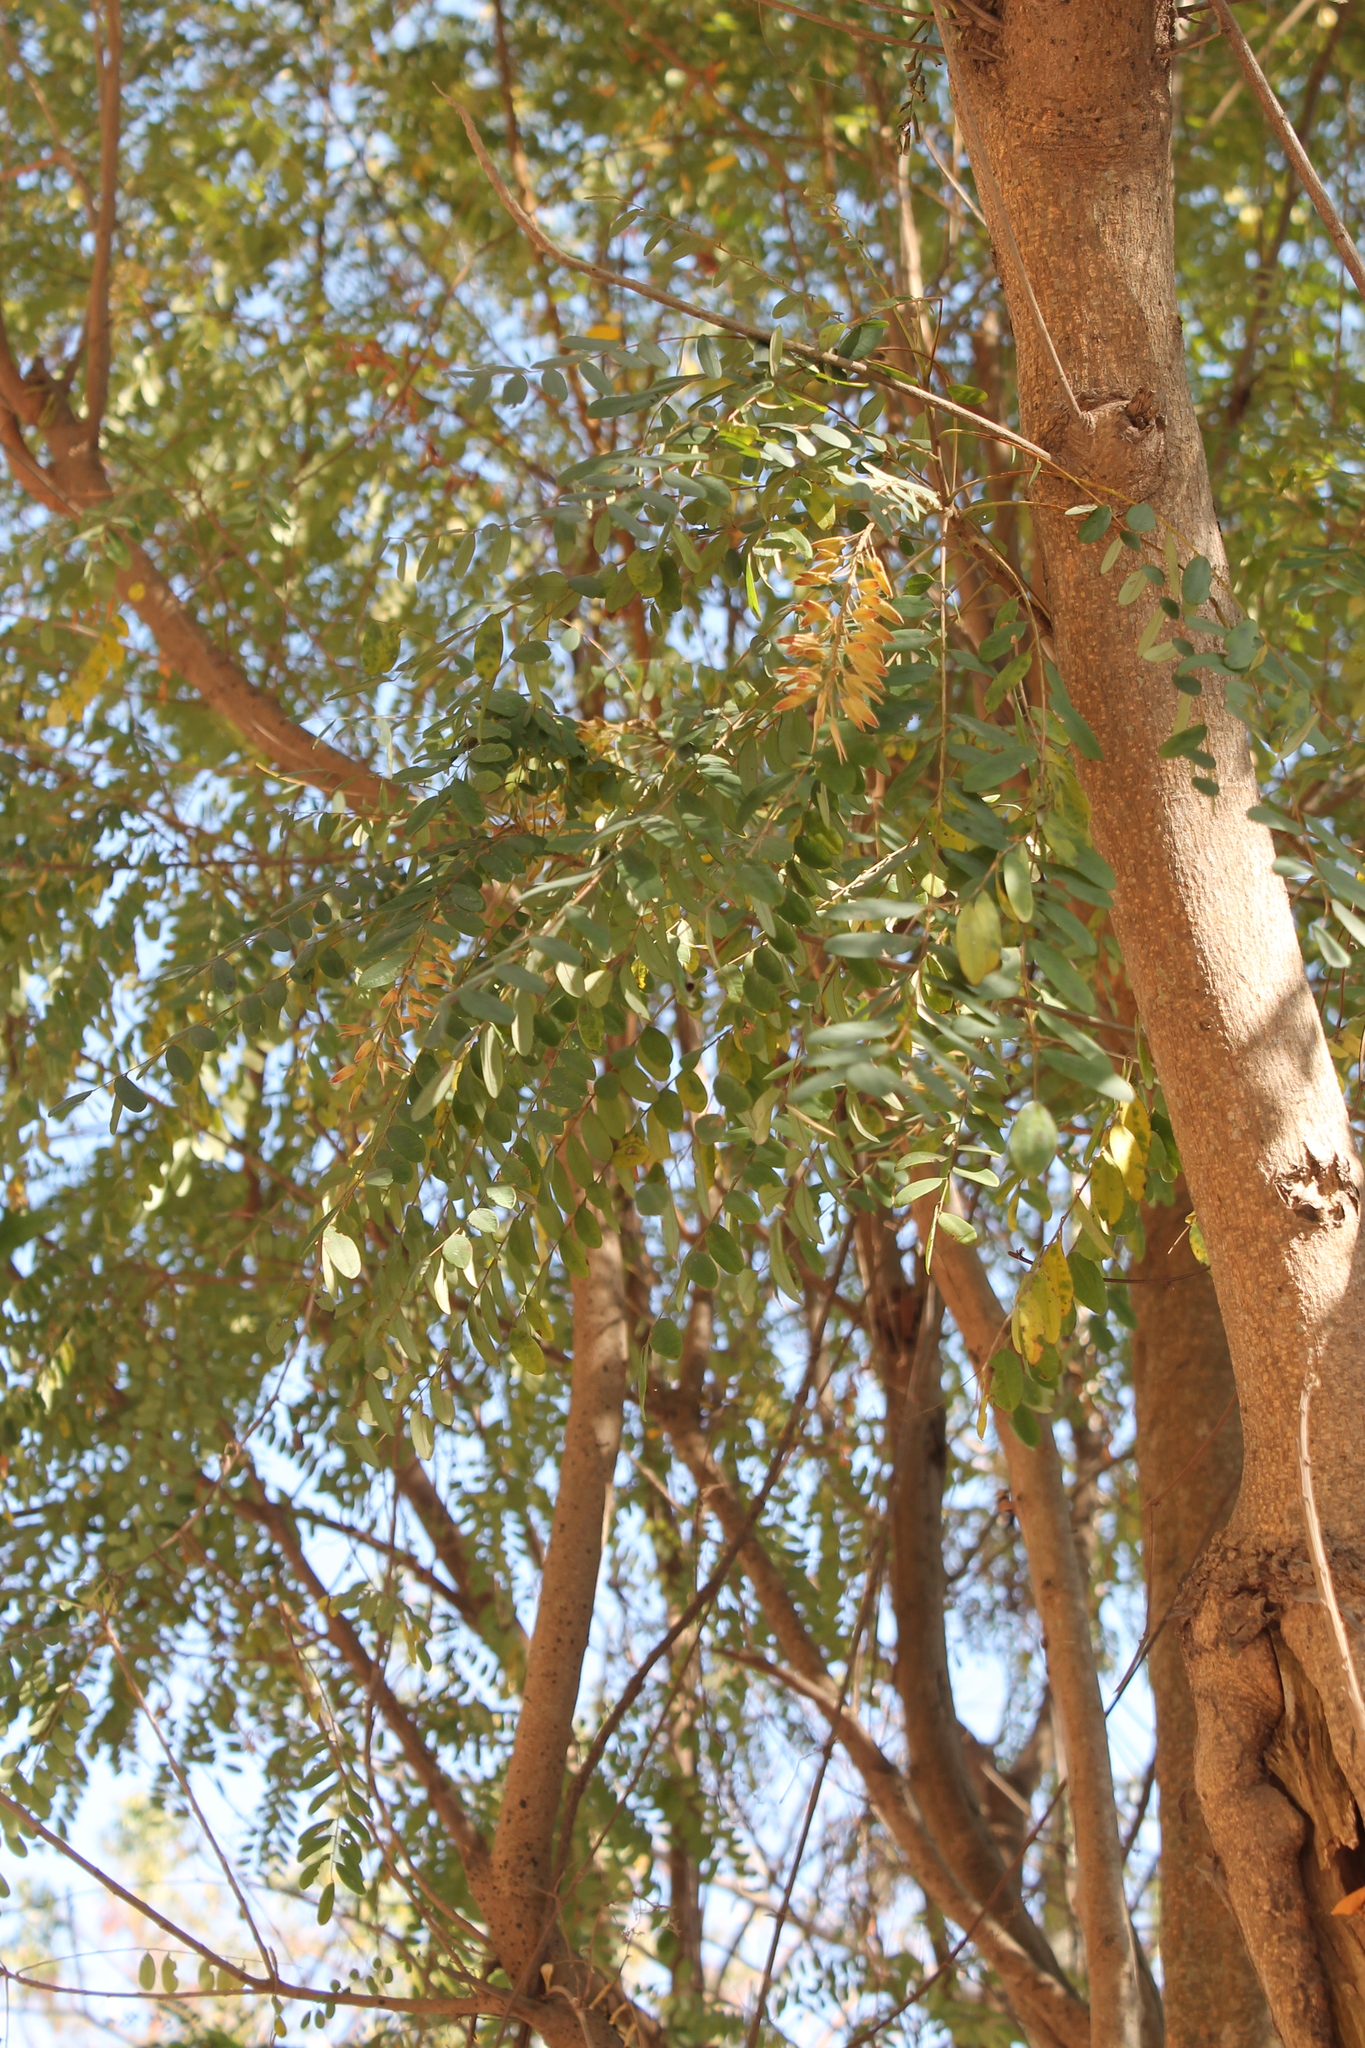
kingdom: Plantae
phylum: Tracheophyta
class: Magnoliopsida
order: Picramniales
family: Picramniaceae
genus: Alvaradoa
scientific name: Alvaradoa amorphoides
